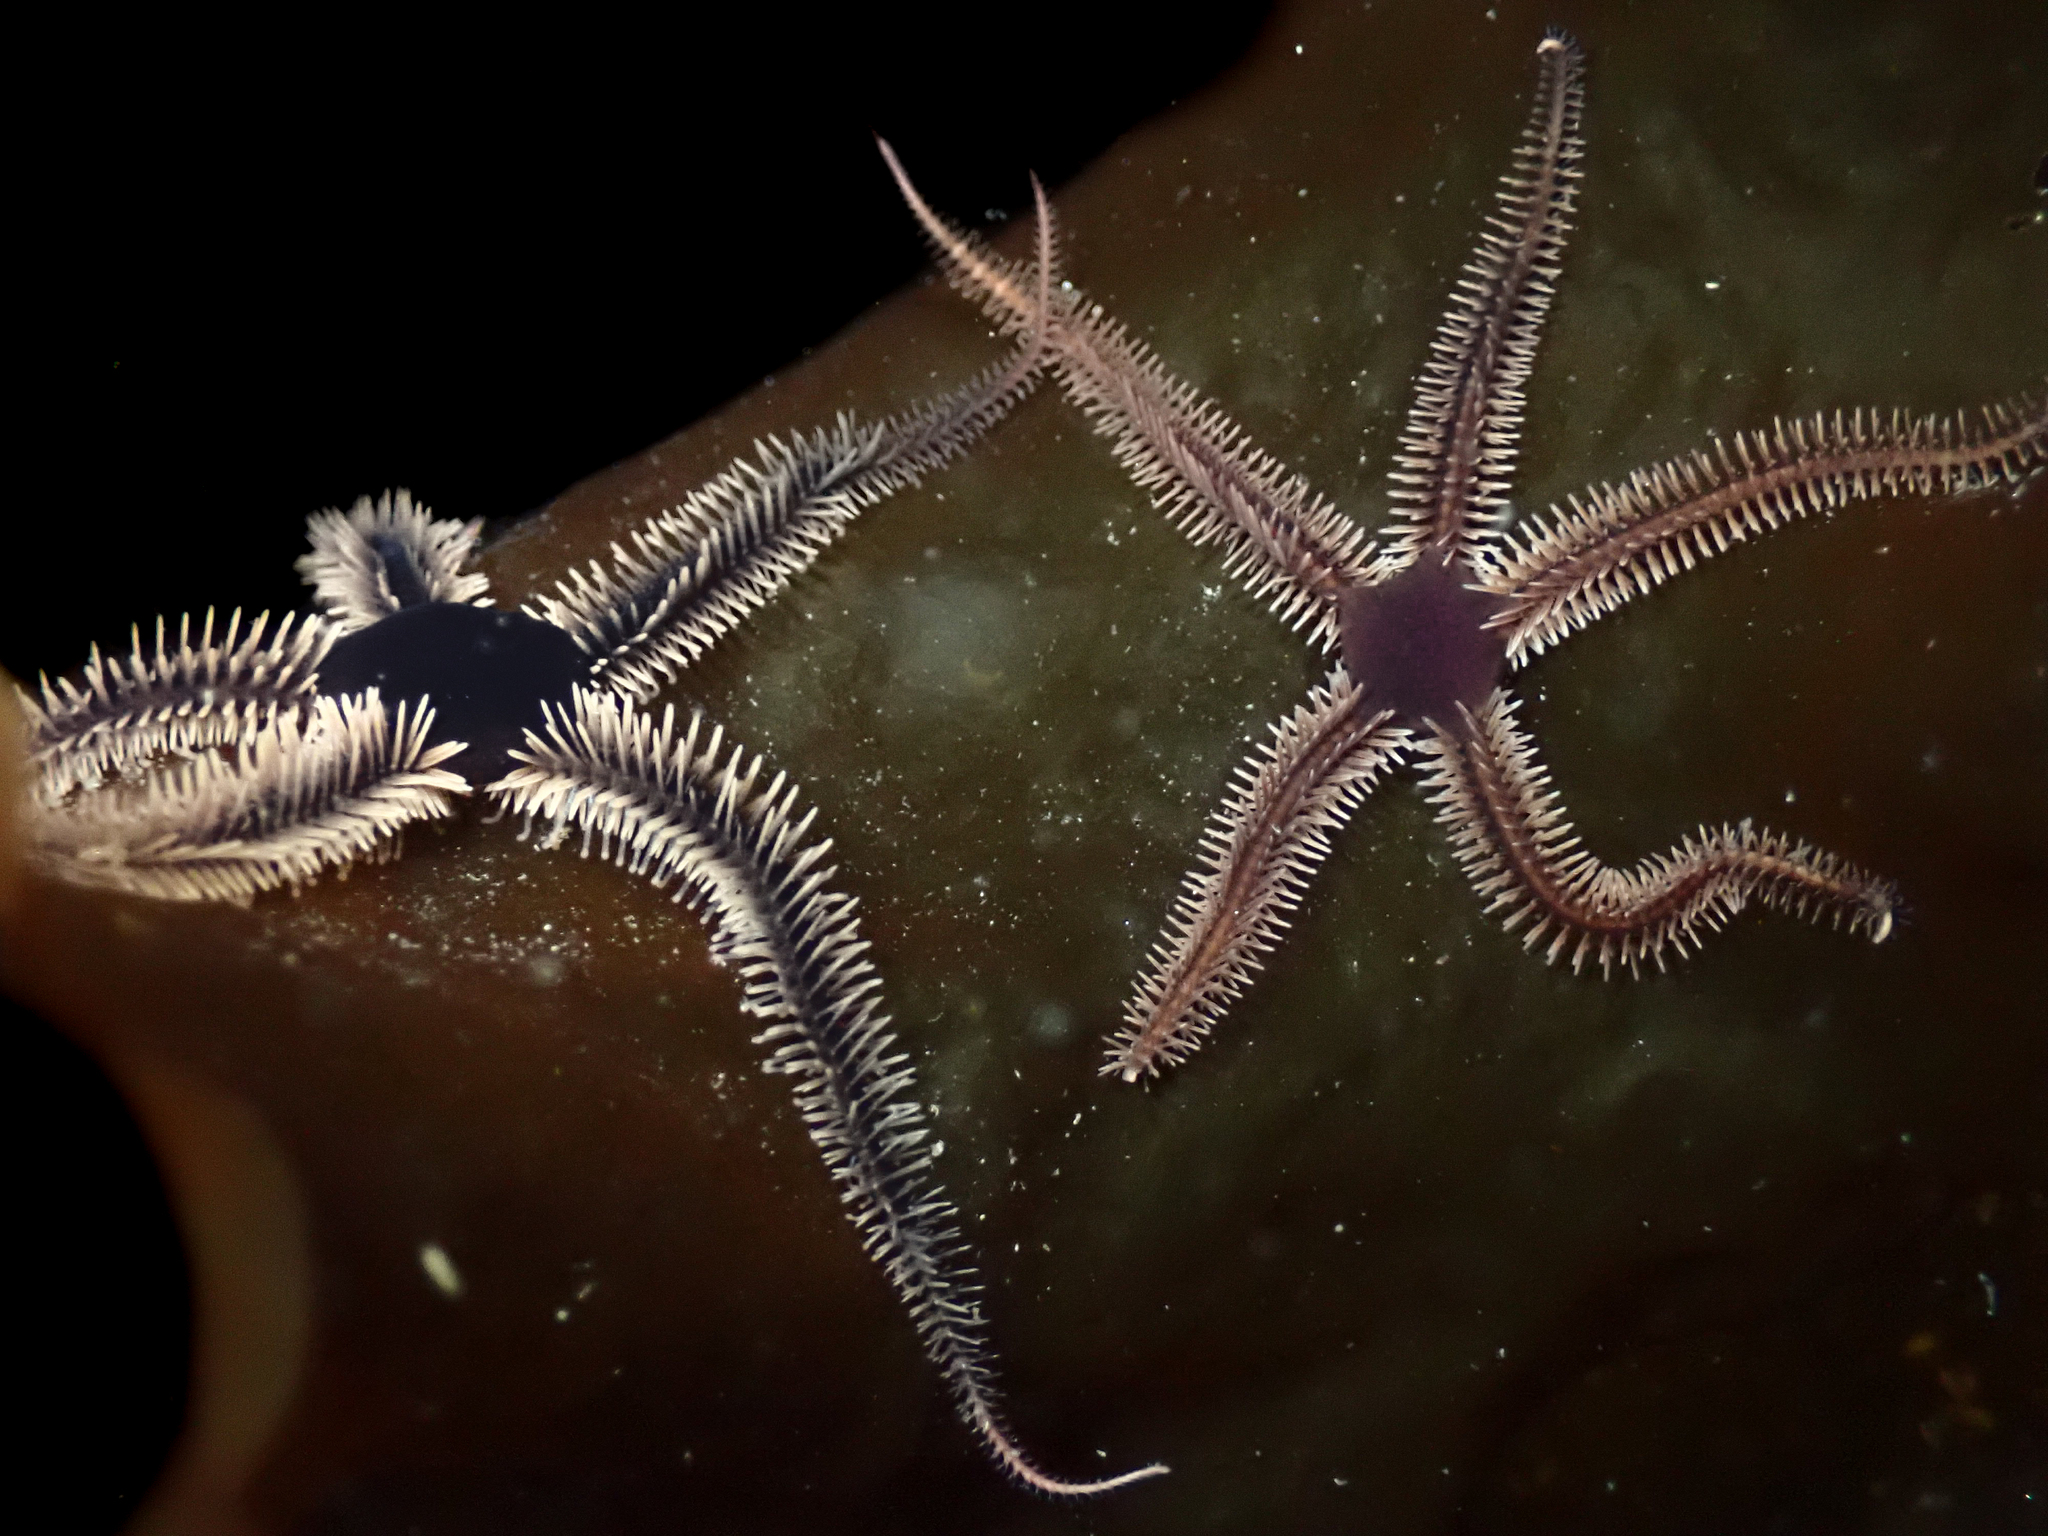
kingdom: Animalia
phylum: Echinodermata
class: Ophiuroidea
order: Ophiacanthida
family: Ophiotomidae
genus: Ophiocomina
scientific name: Ophiocomina nigra
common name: Black brittle star
